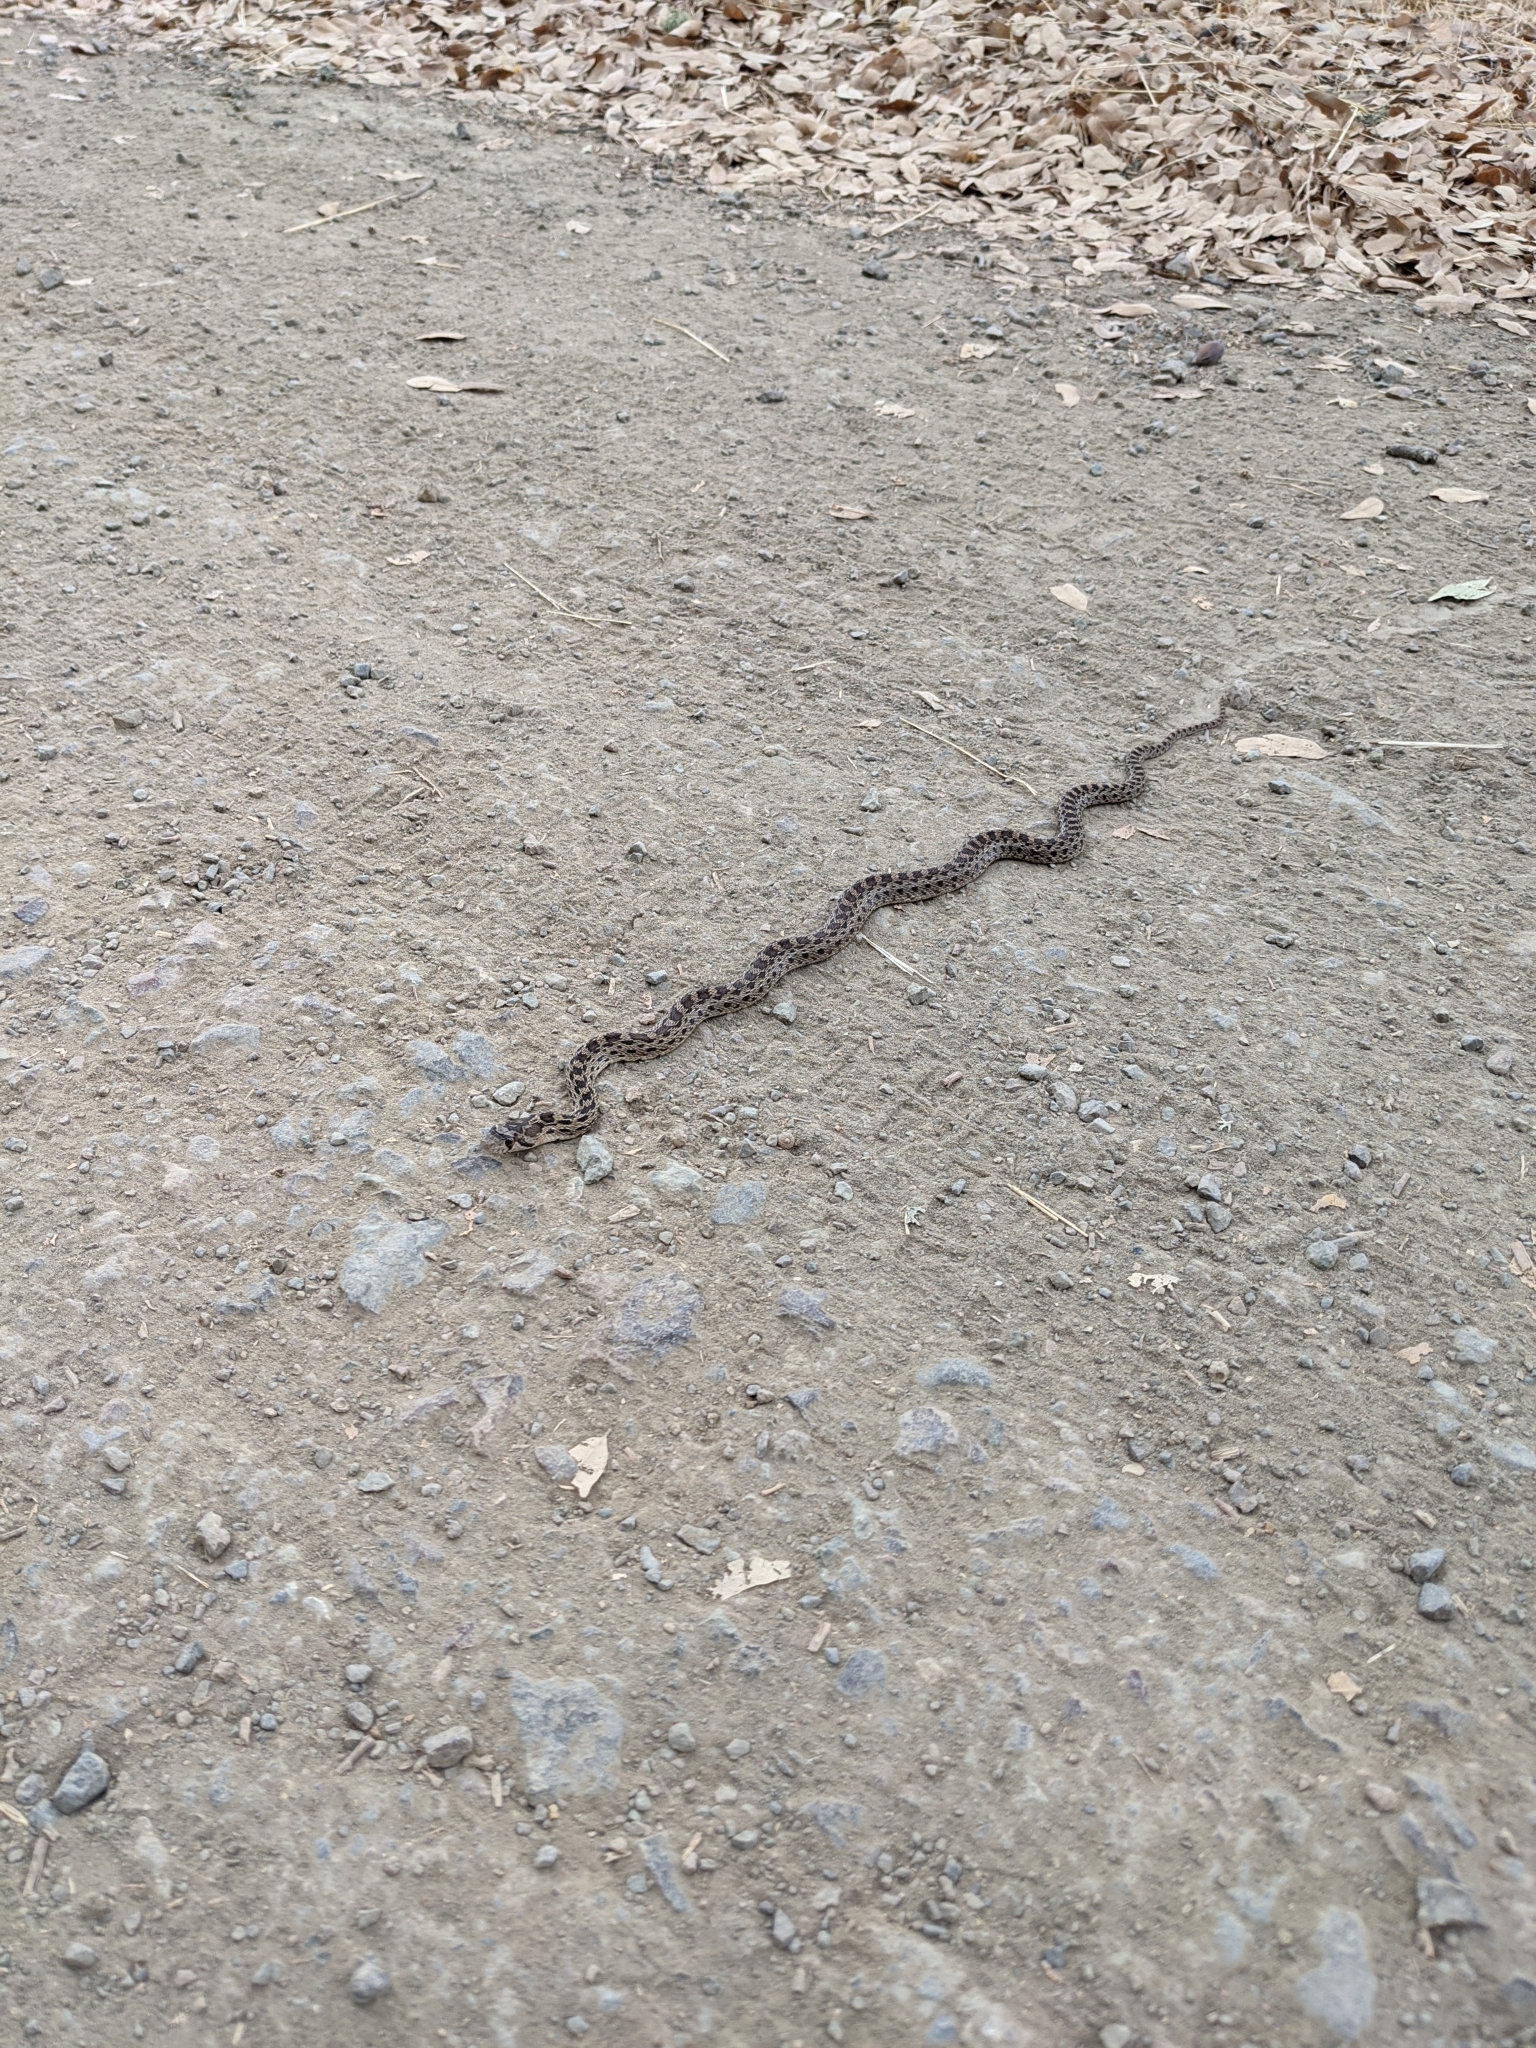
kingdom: Animalia
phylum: Chordata
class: Squamata
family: Colubridae
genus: Pituophis
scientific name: Pituophis catenifer
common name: Gopher snake
